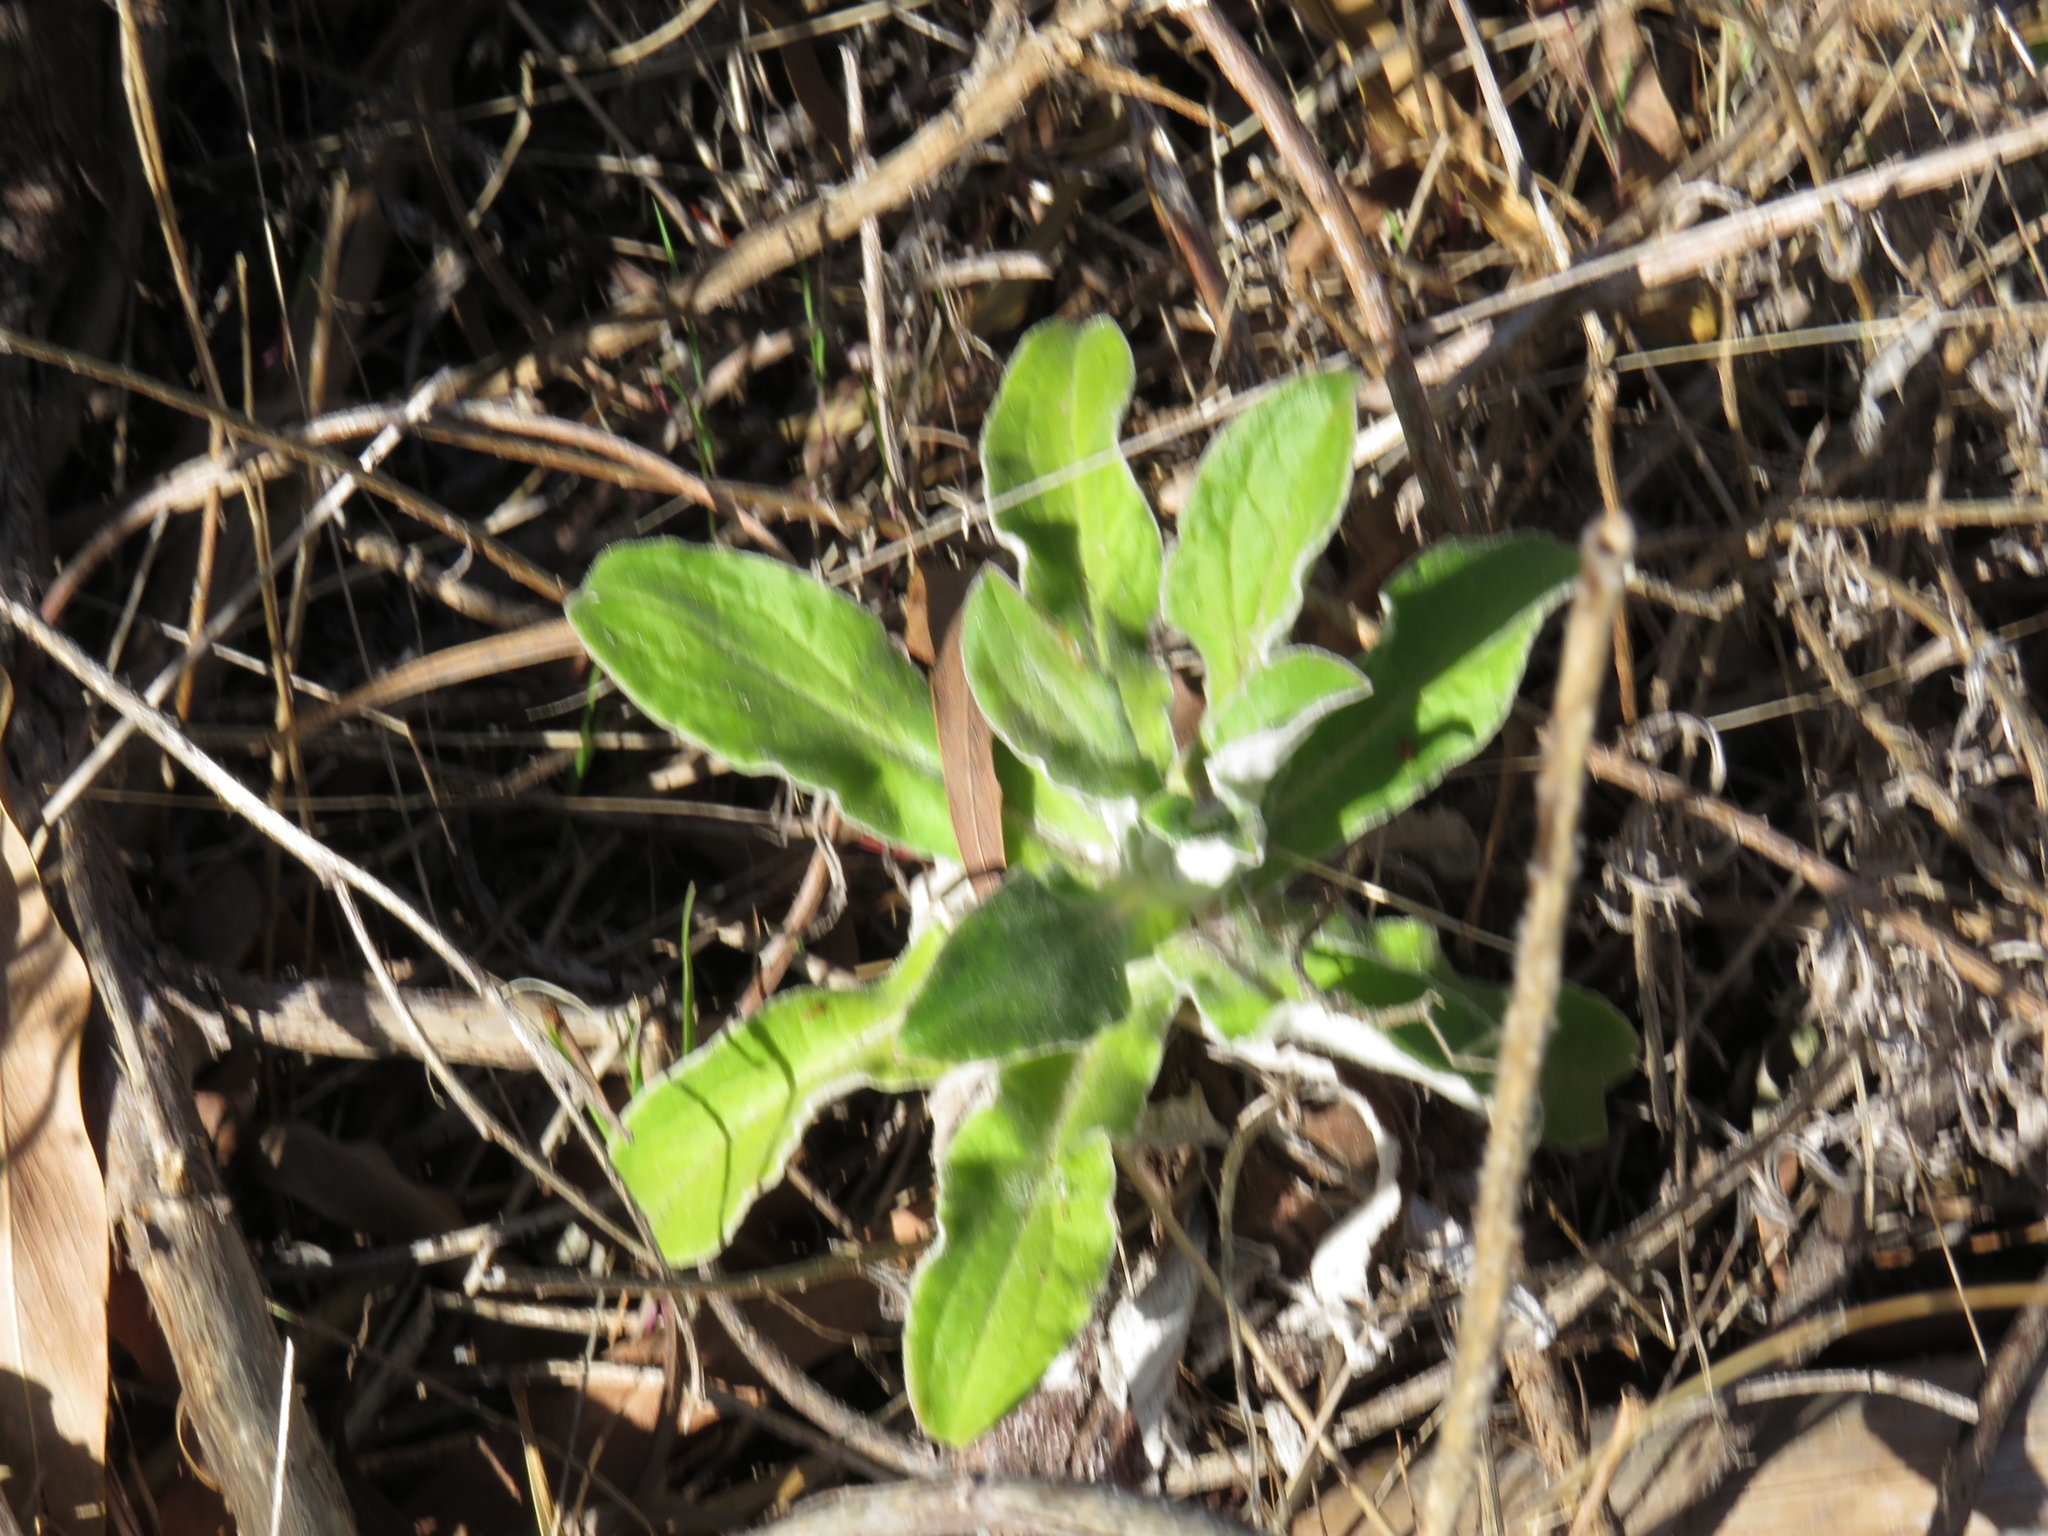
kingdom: Plantae
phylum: Tracheophyta
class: Magnoliopsida
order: Asterales
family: Asteraceae
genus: Helichrysum
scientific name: Helichrysum foetidum
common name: Stinking everlasting
